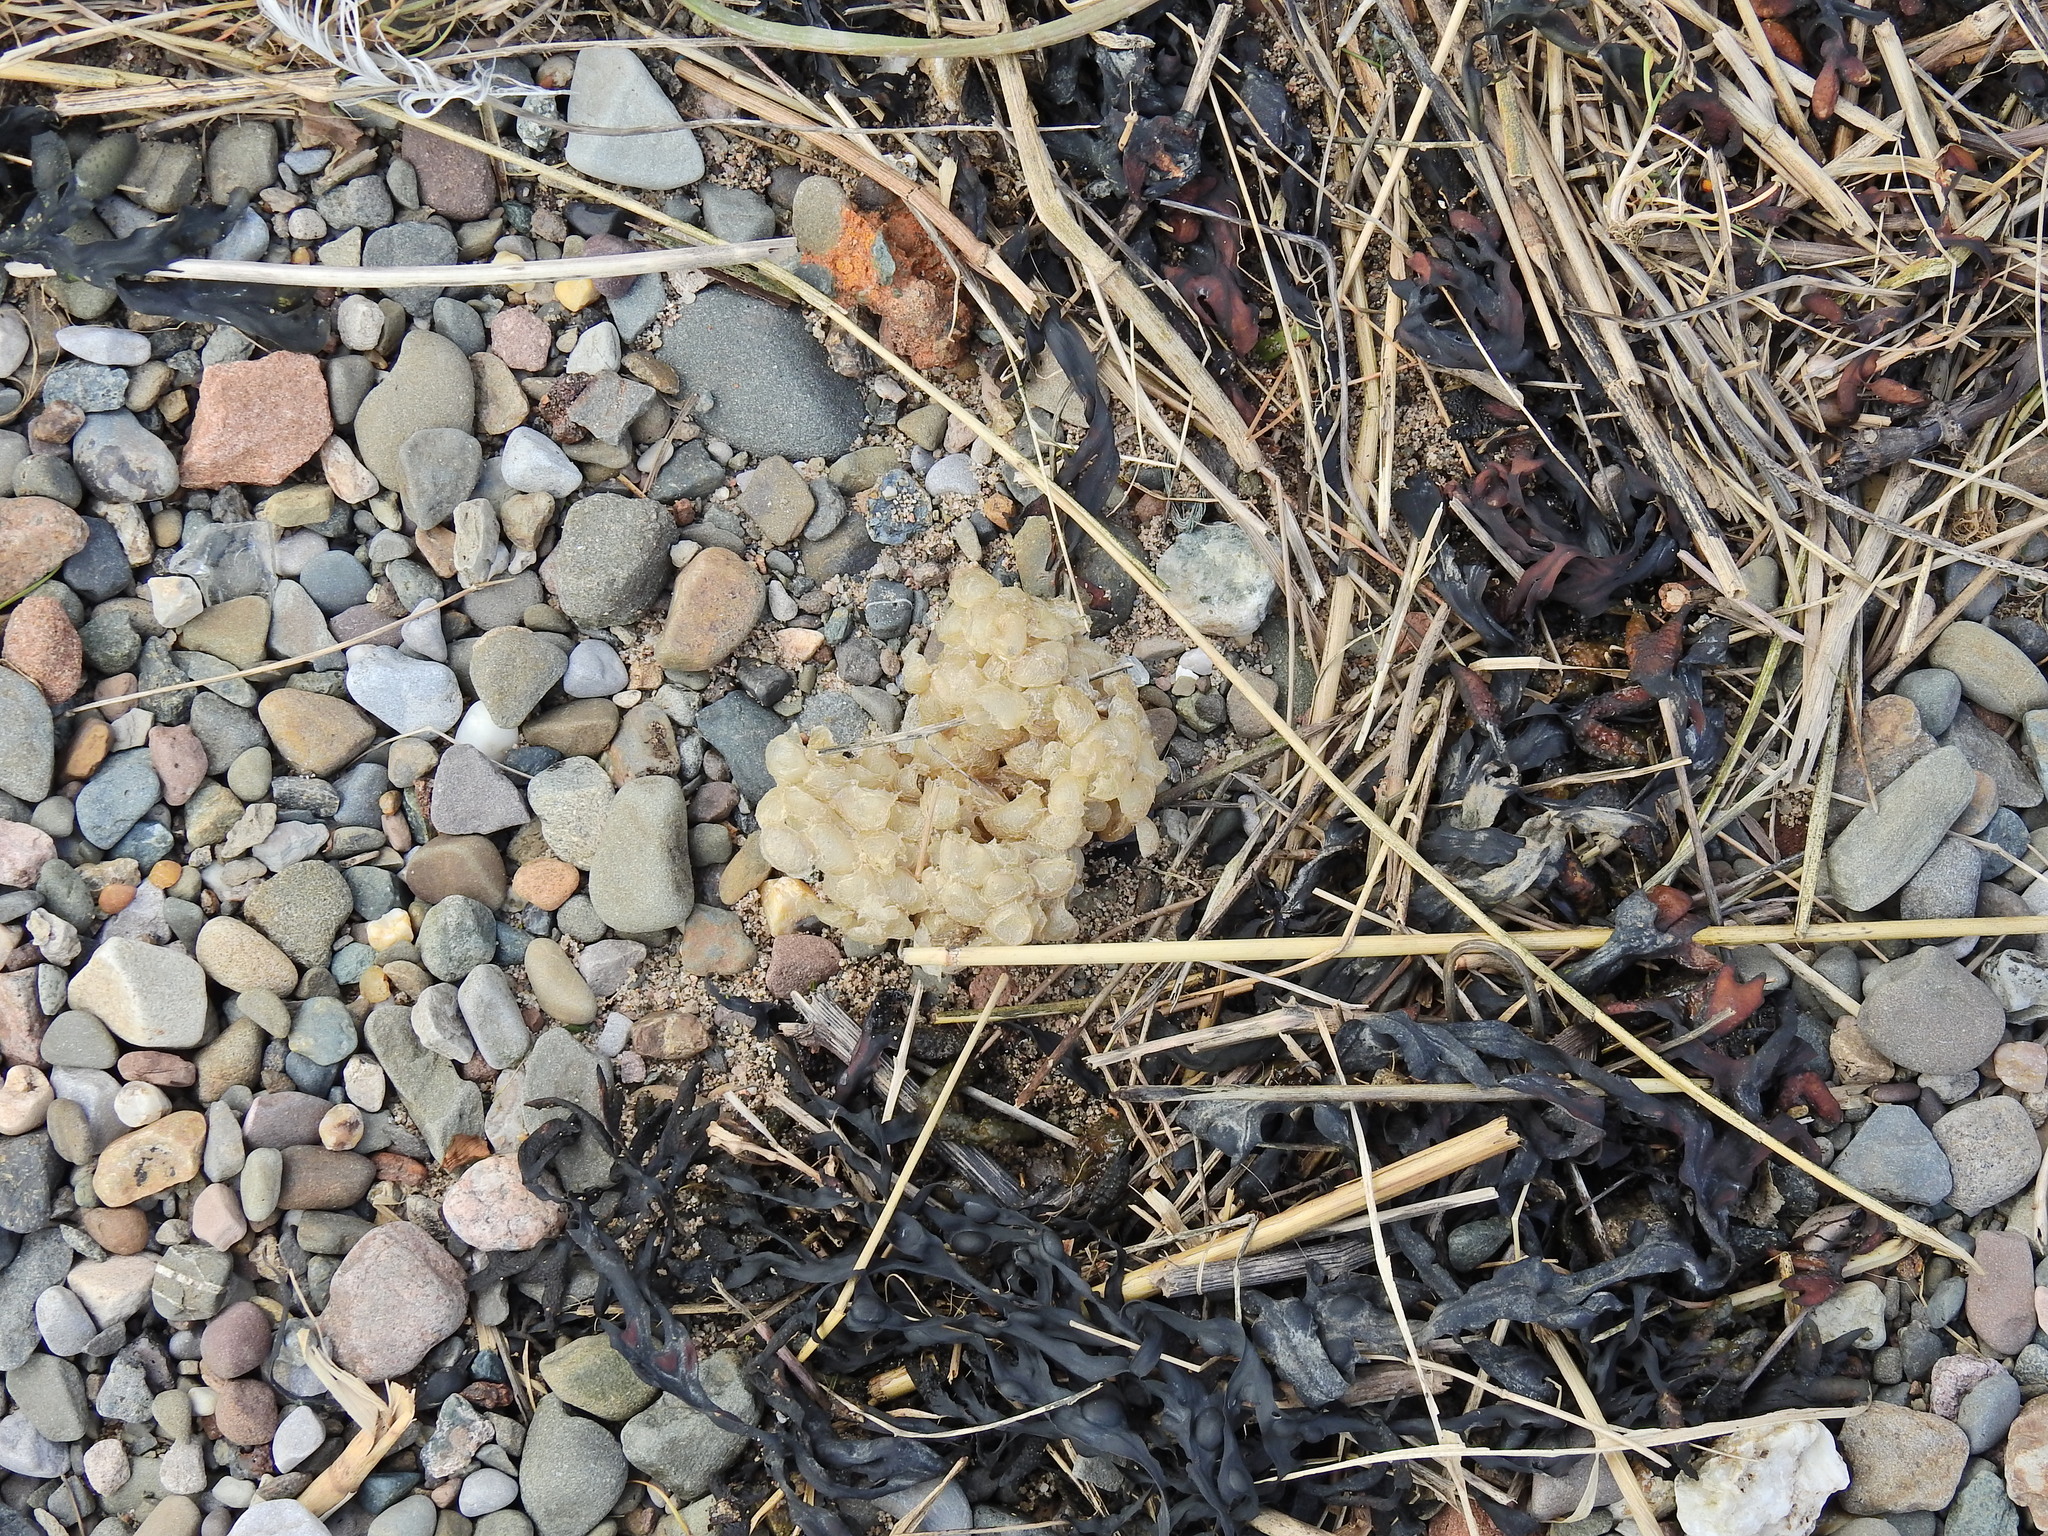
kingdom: Animalia
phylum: Mollusca
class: Gastropoda
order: Neogastropoda
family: Buccinidae
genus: Buccinum
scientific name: Buccinum undatum
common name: Common whelk
